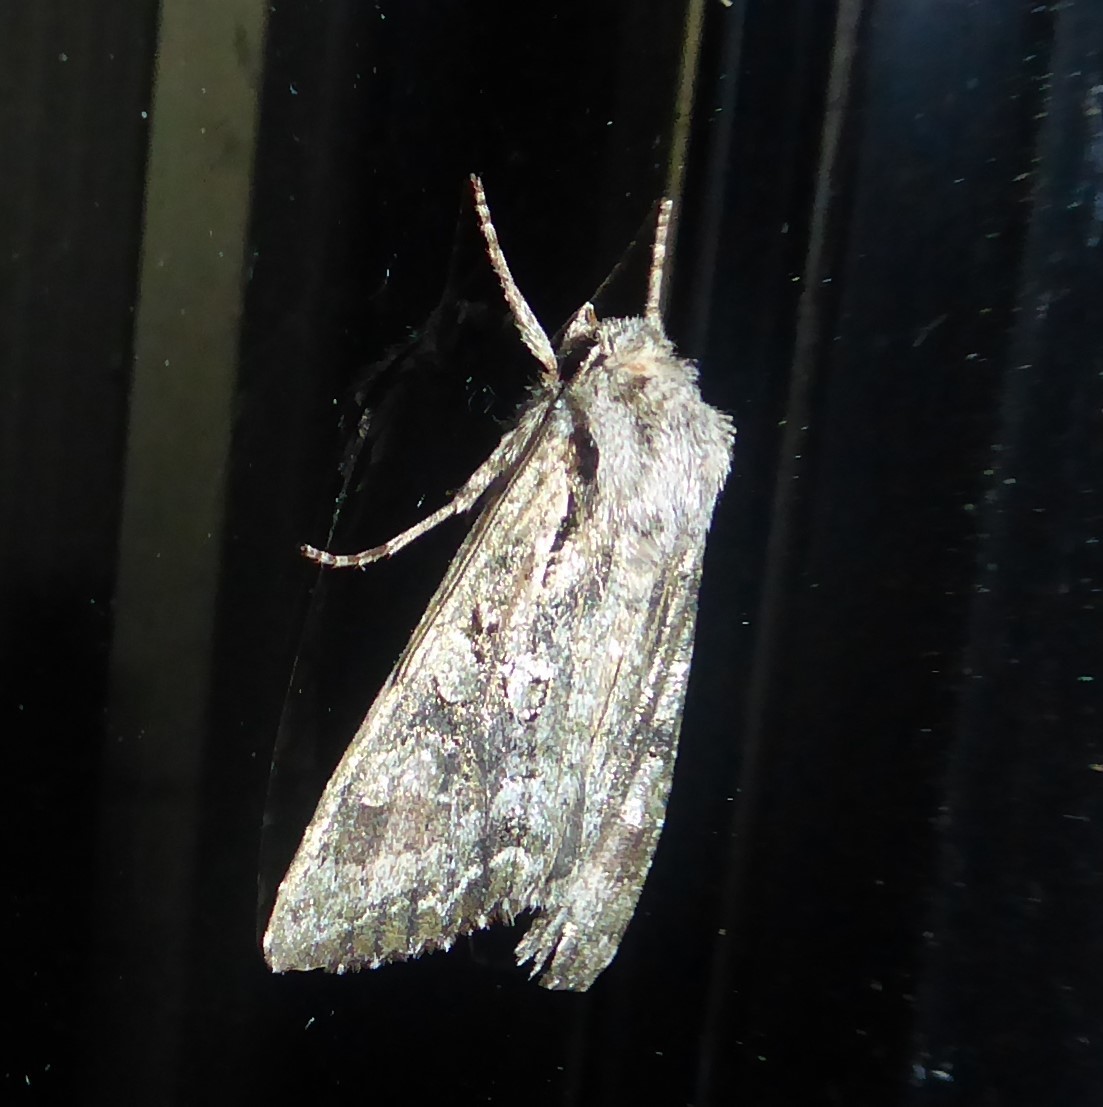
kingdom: Animalia
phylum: Arthropoda
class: Insecta
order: Lepidoptera
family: Noctuidae
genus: Ichneutica
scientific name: Ichneutica mutans
